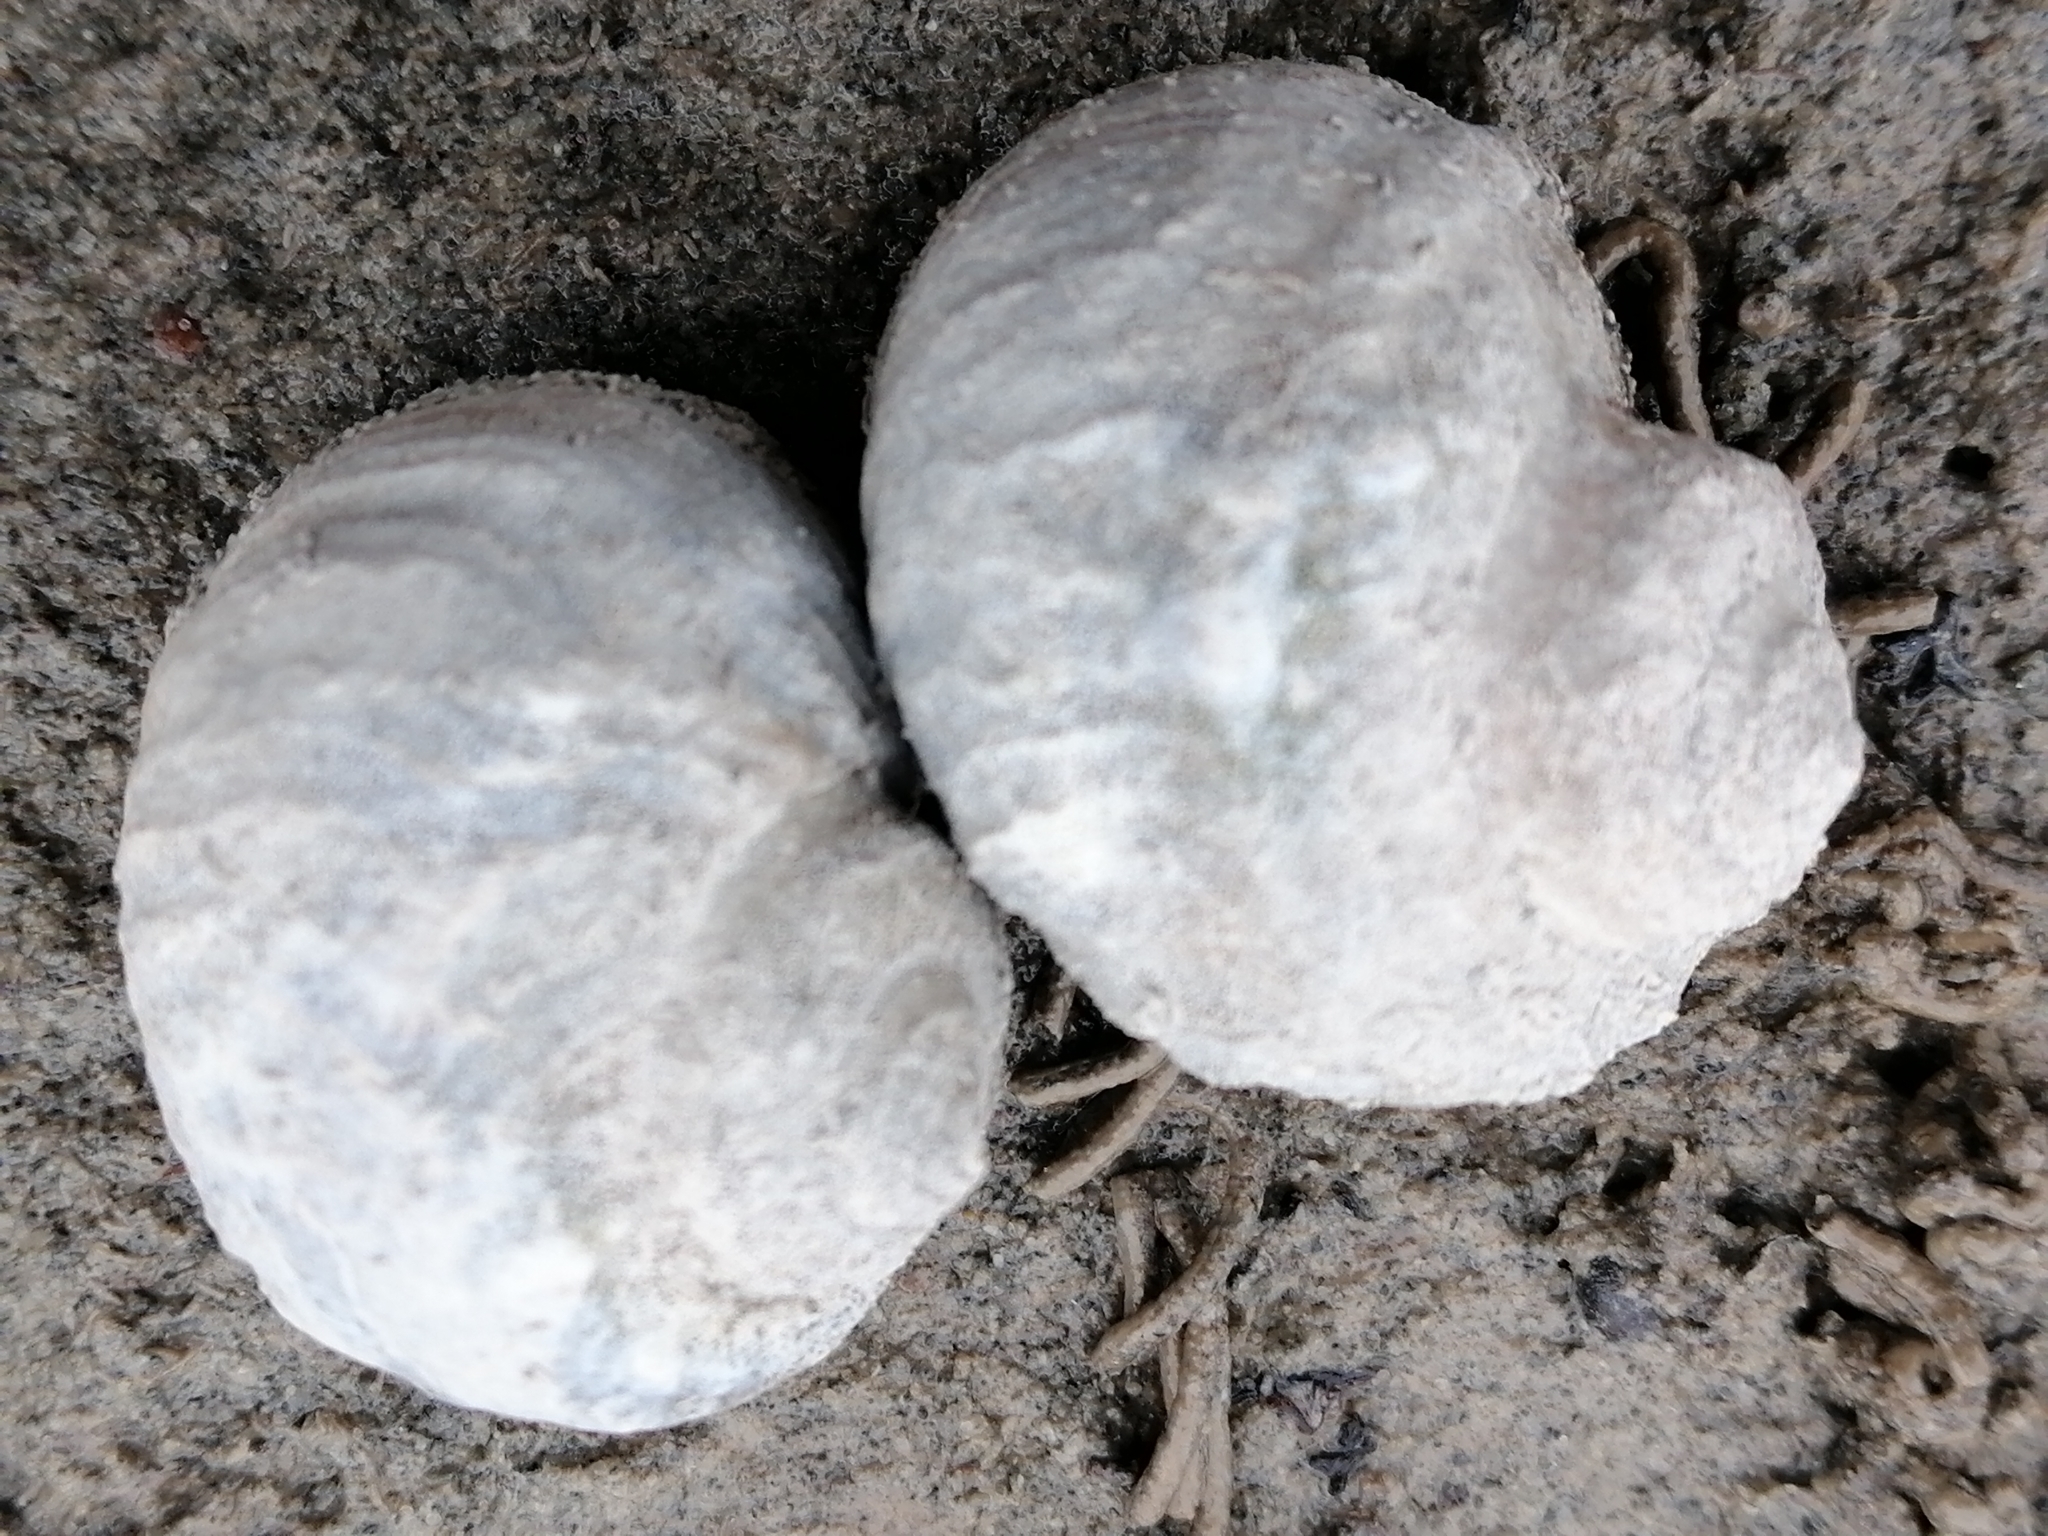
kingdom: Animalia
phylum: Mollusca
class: Gastropoda
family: Amphibolidae
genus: Amphibola
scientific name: Amphibola crenata
